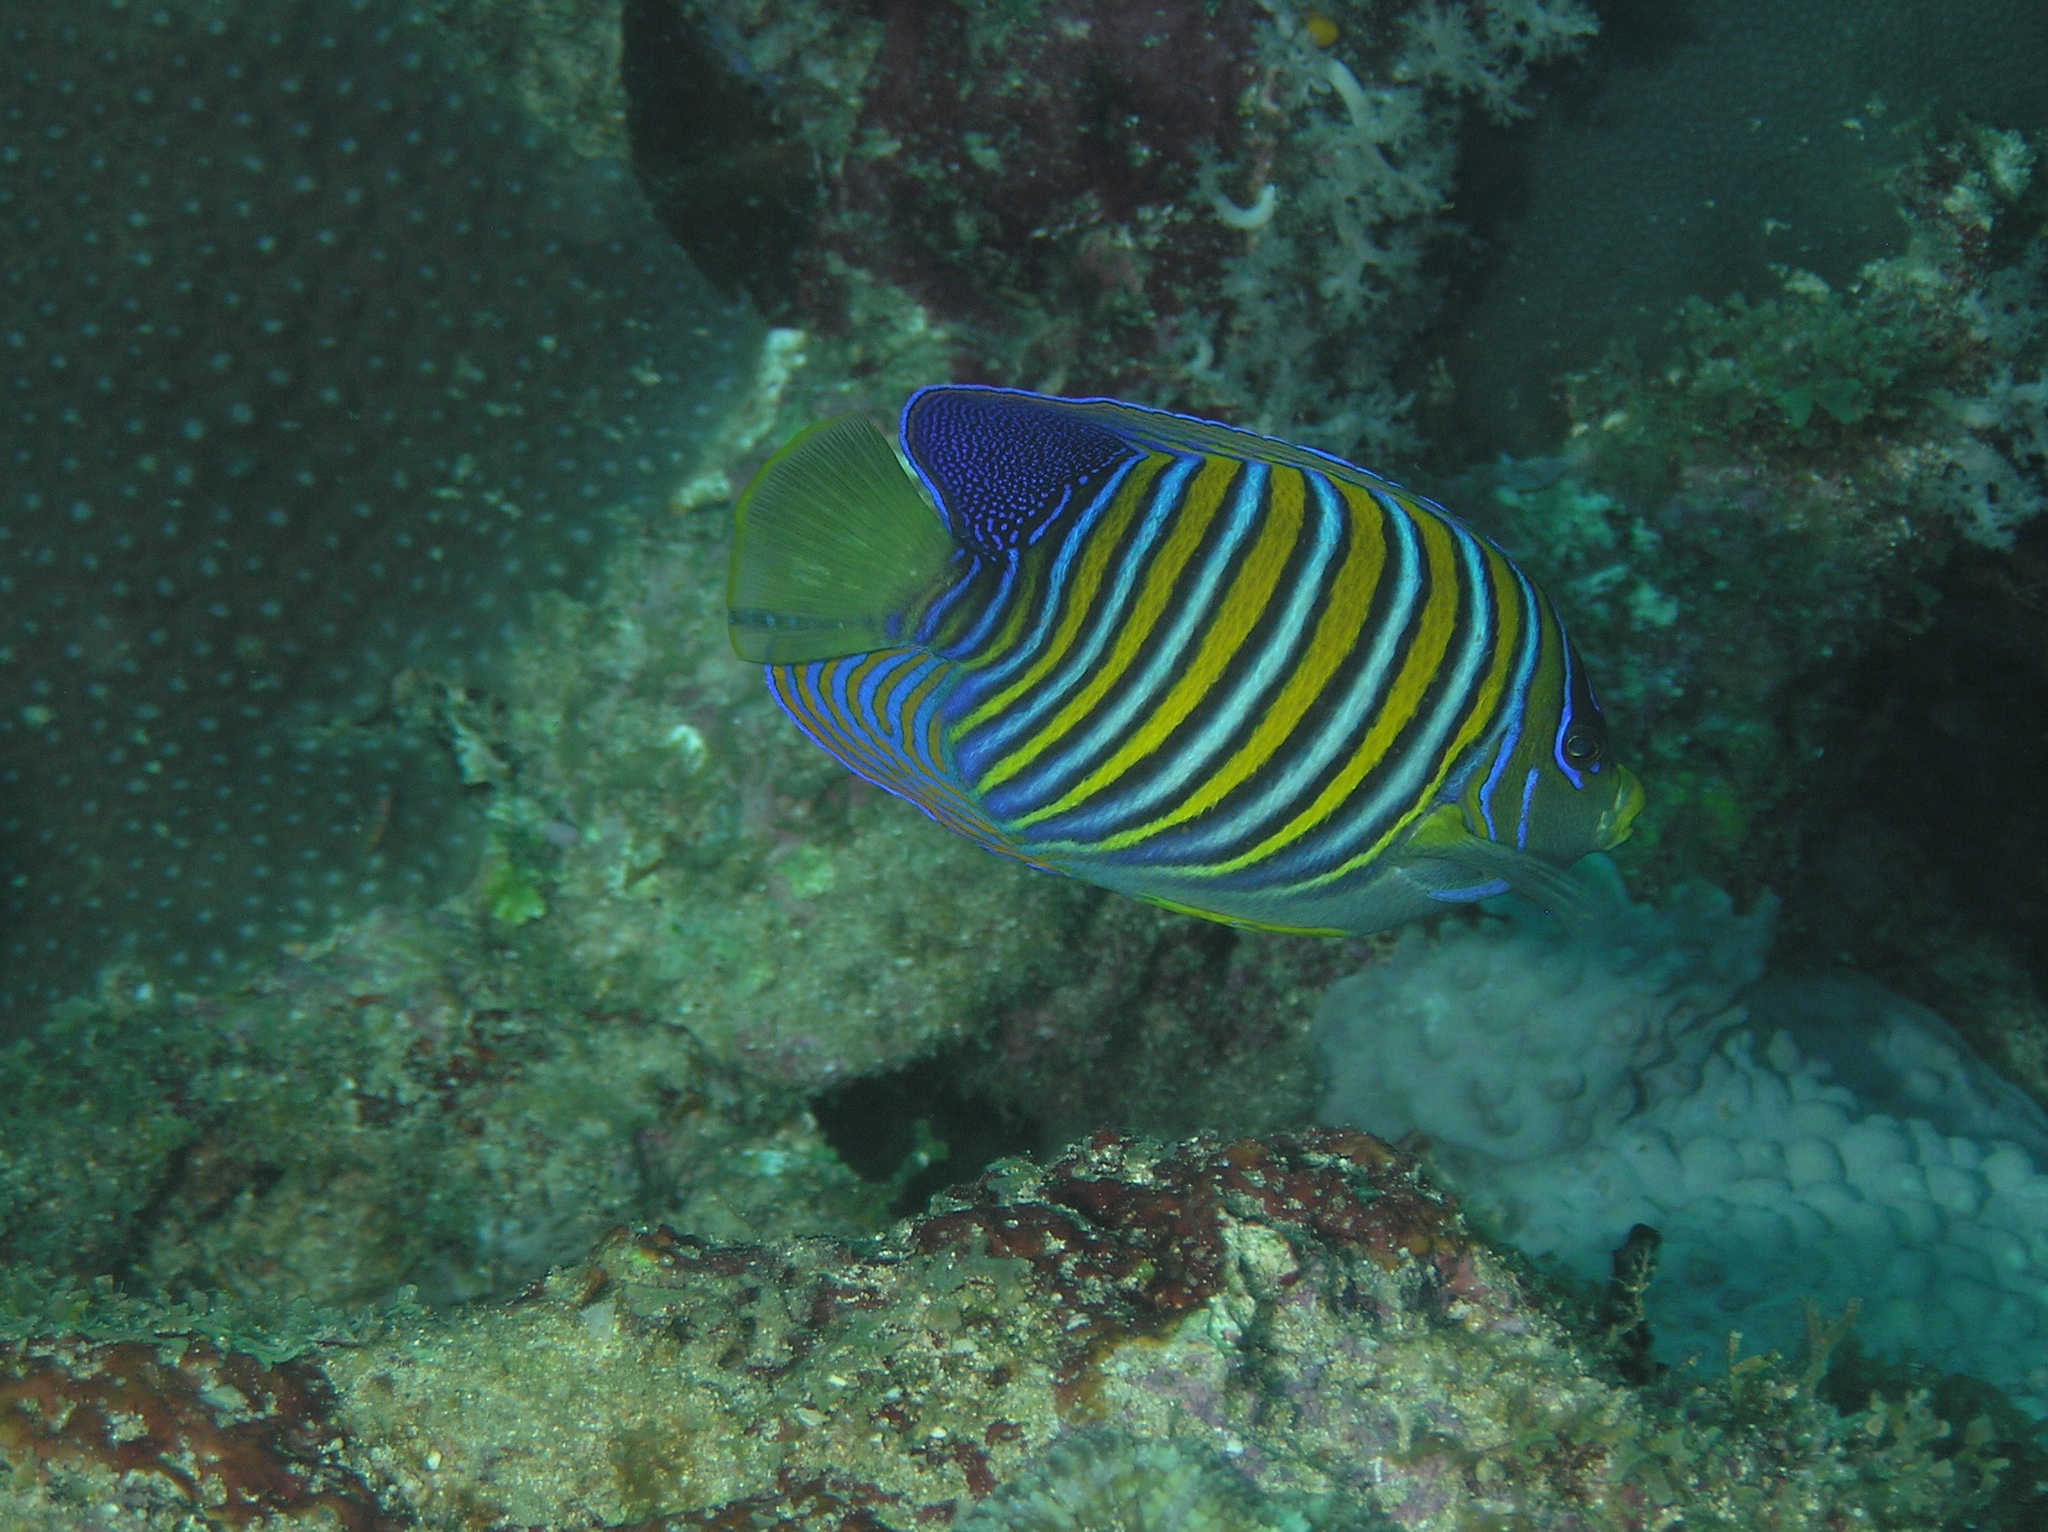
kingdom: Animalia
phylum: Chordata
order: Perciformes
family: Pomacanthidae
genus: Pygoplites
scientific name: Pygoplites diacanthus
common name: Regal angelfish
